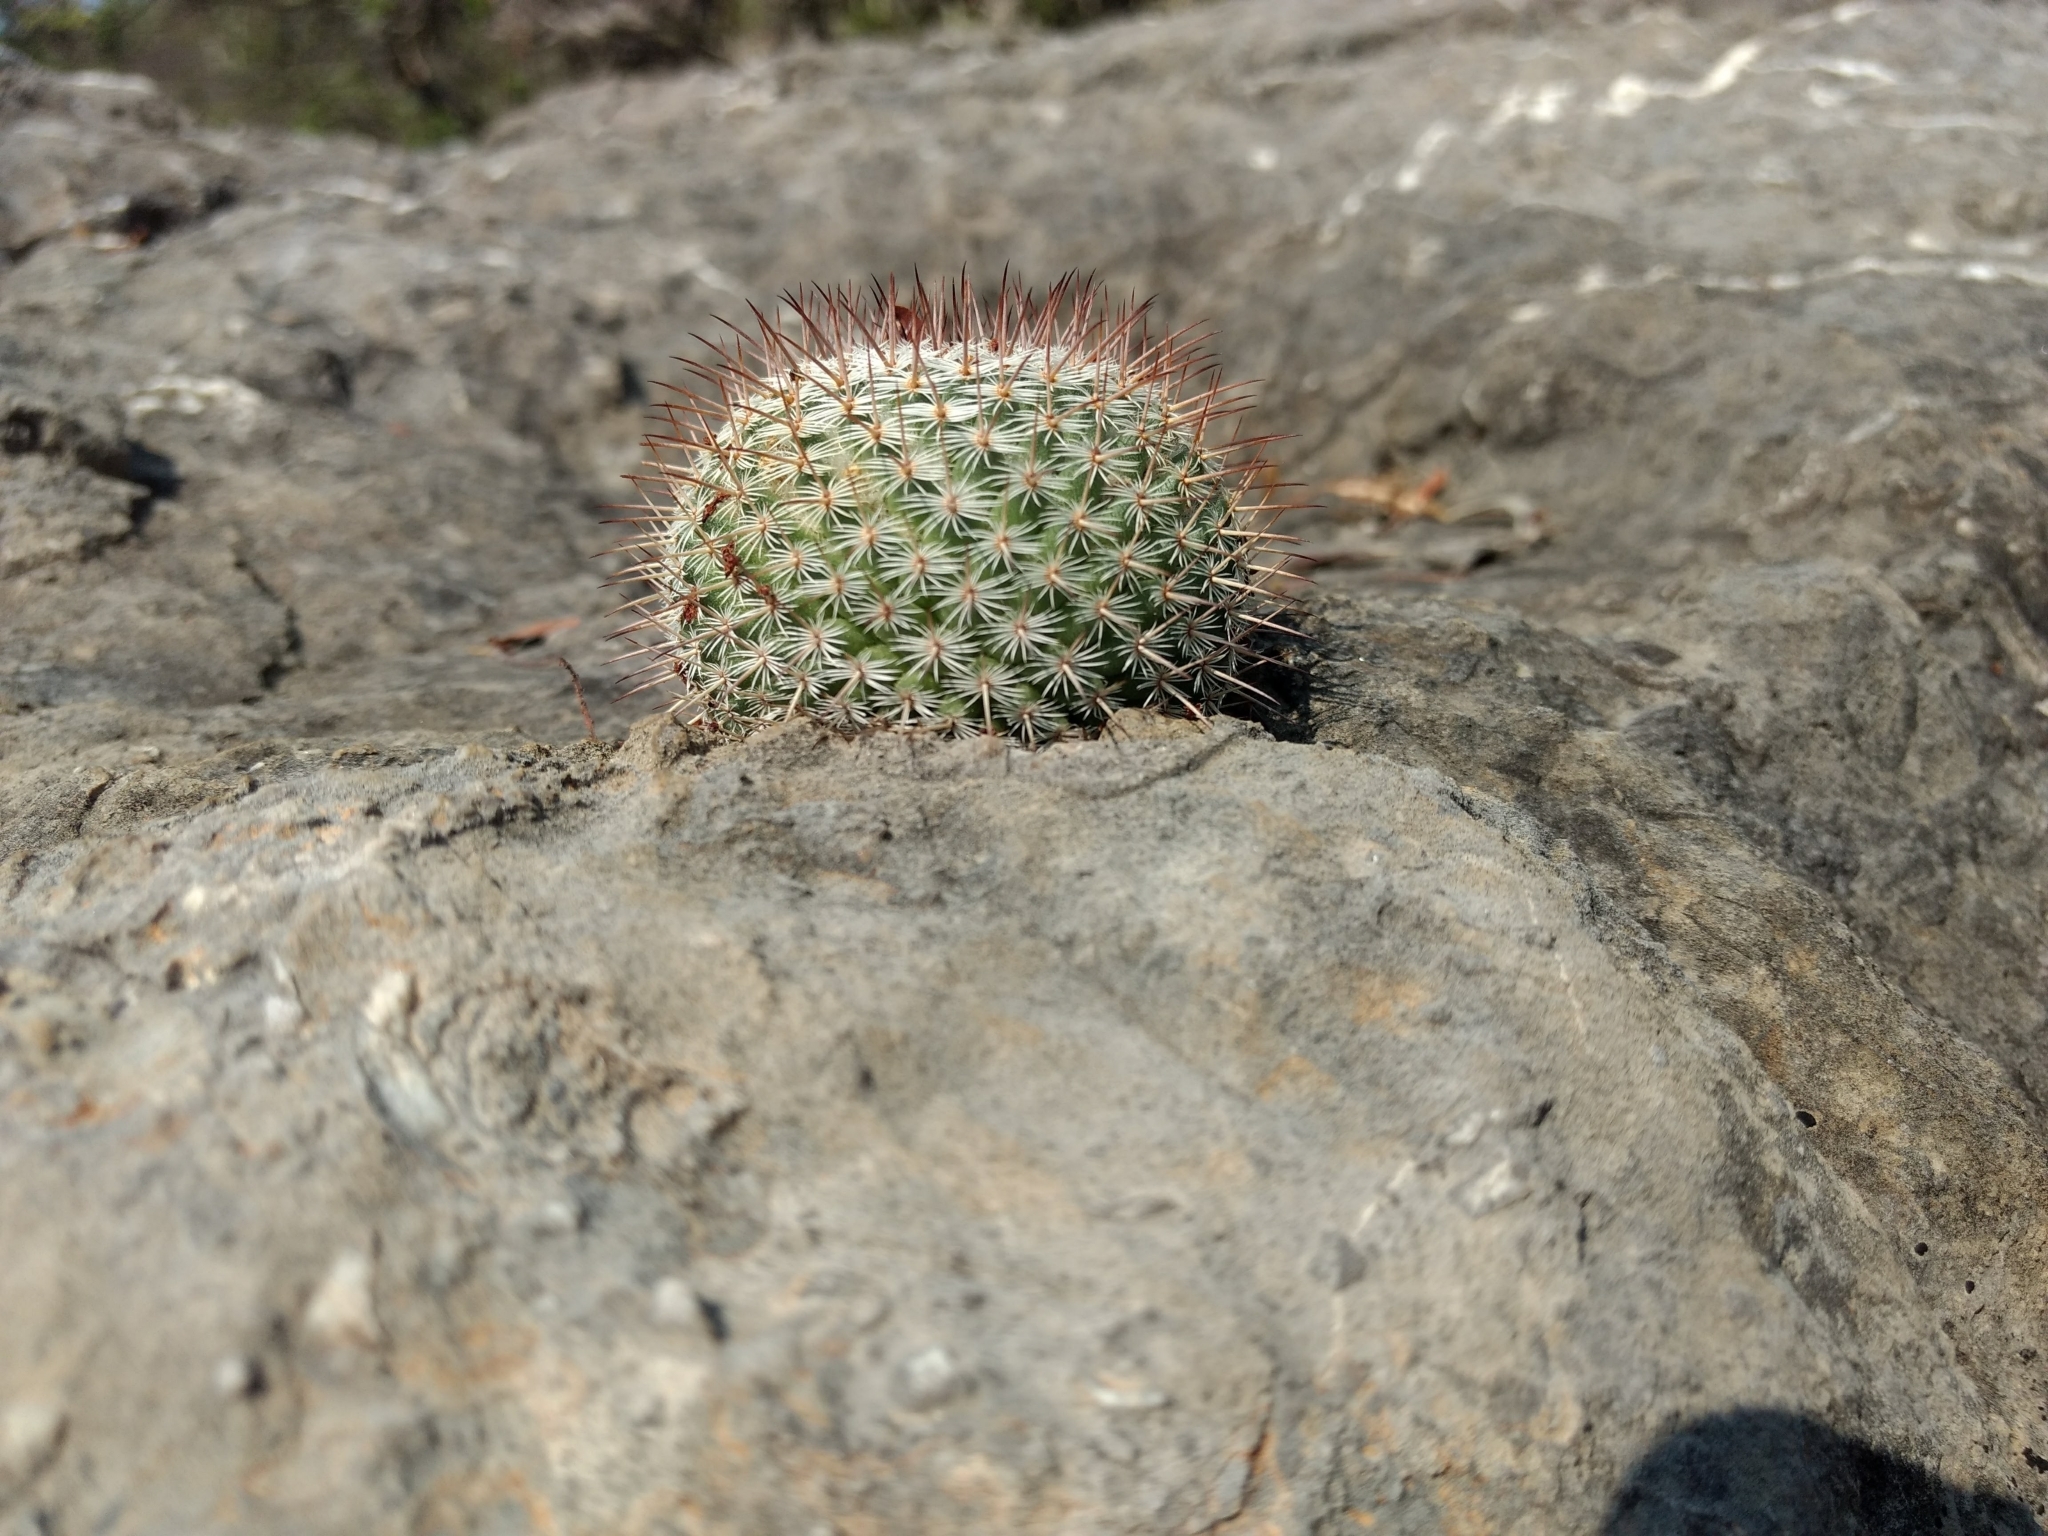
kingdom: Plantae
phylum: Tracheophyta
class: Magnoliopsida
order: Caryophyllales
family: Cactaceae
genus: Mammillaria
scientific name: Mammillaria haageana
